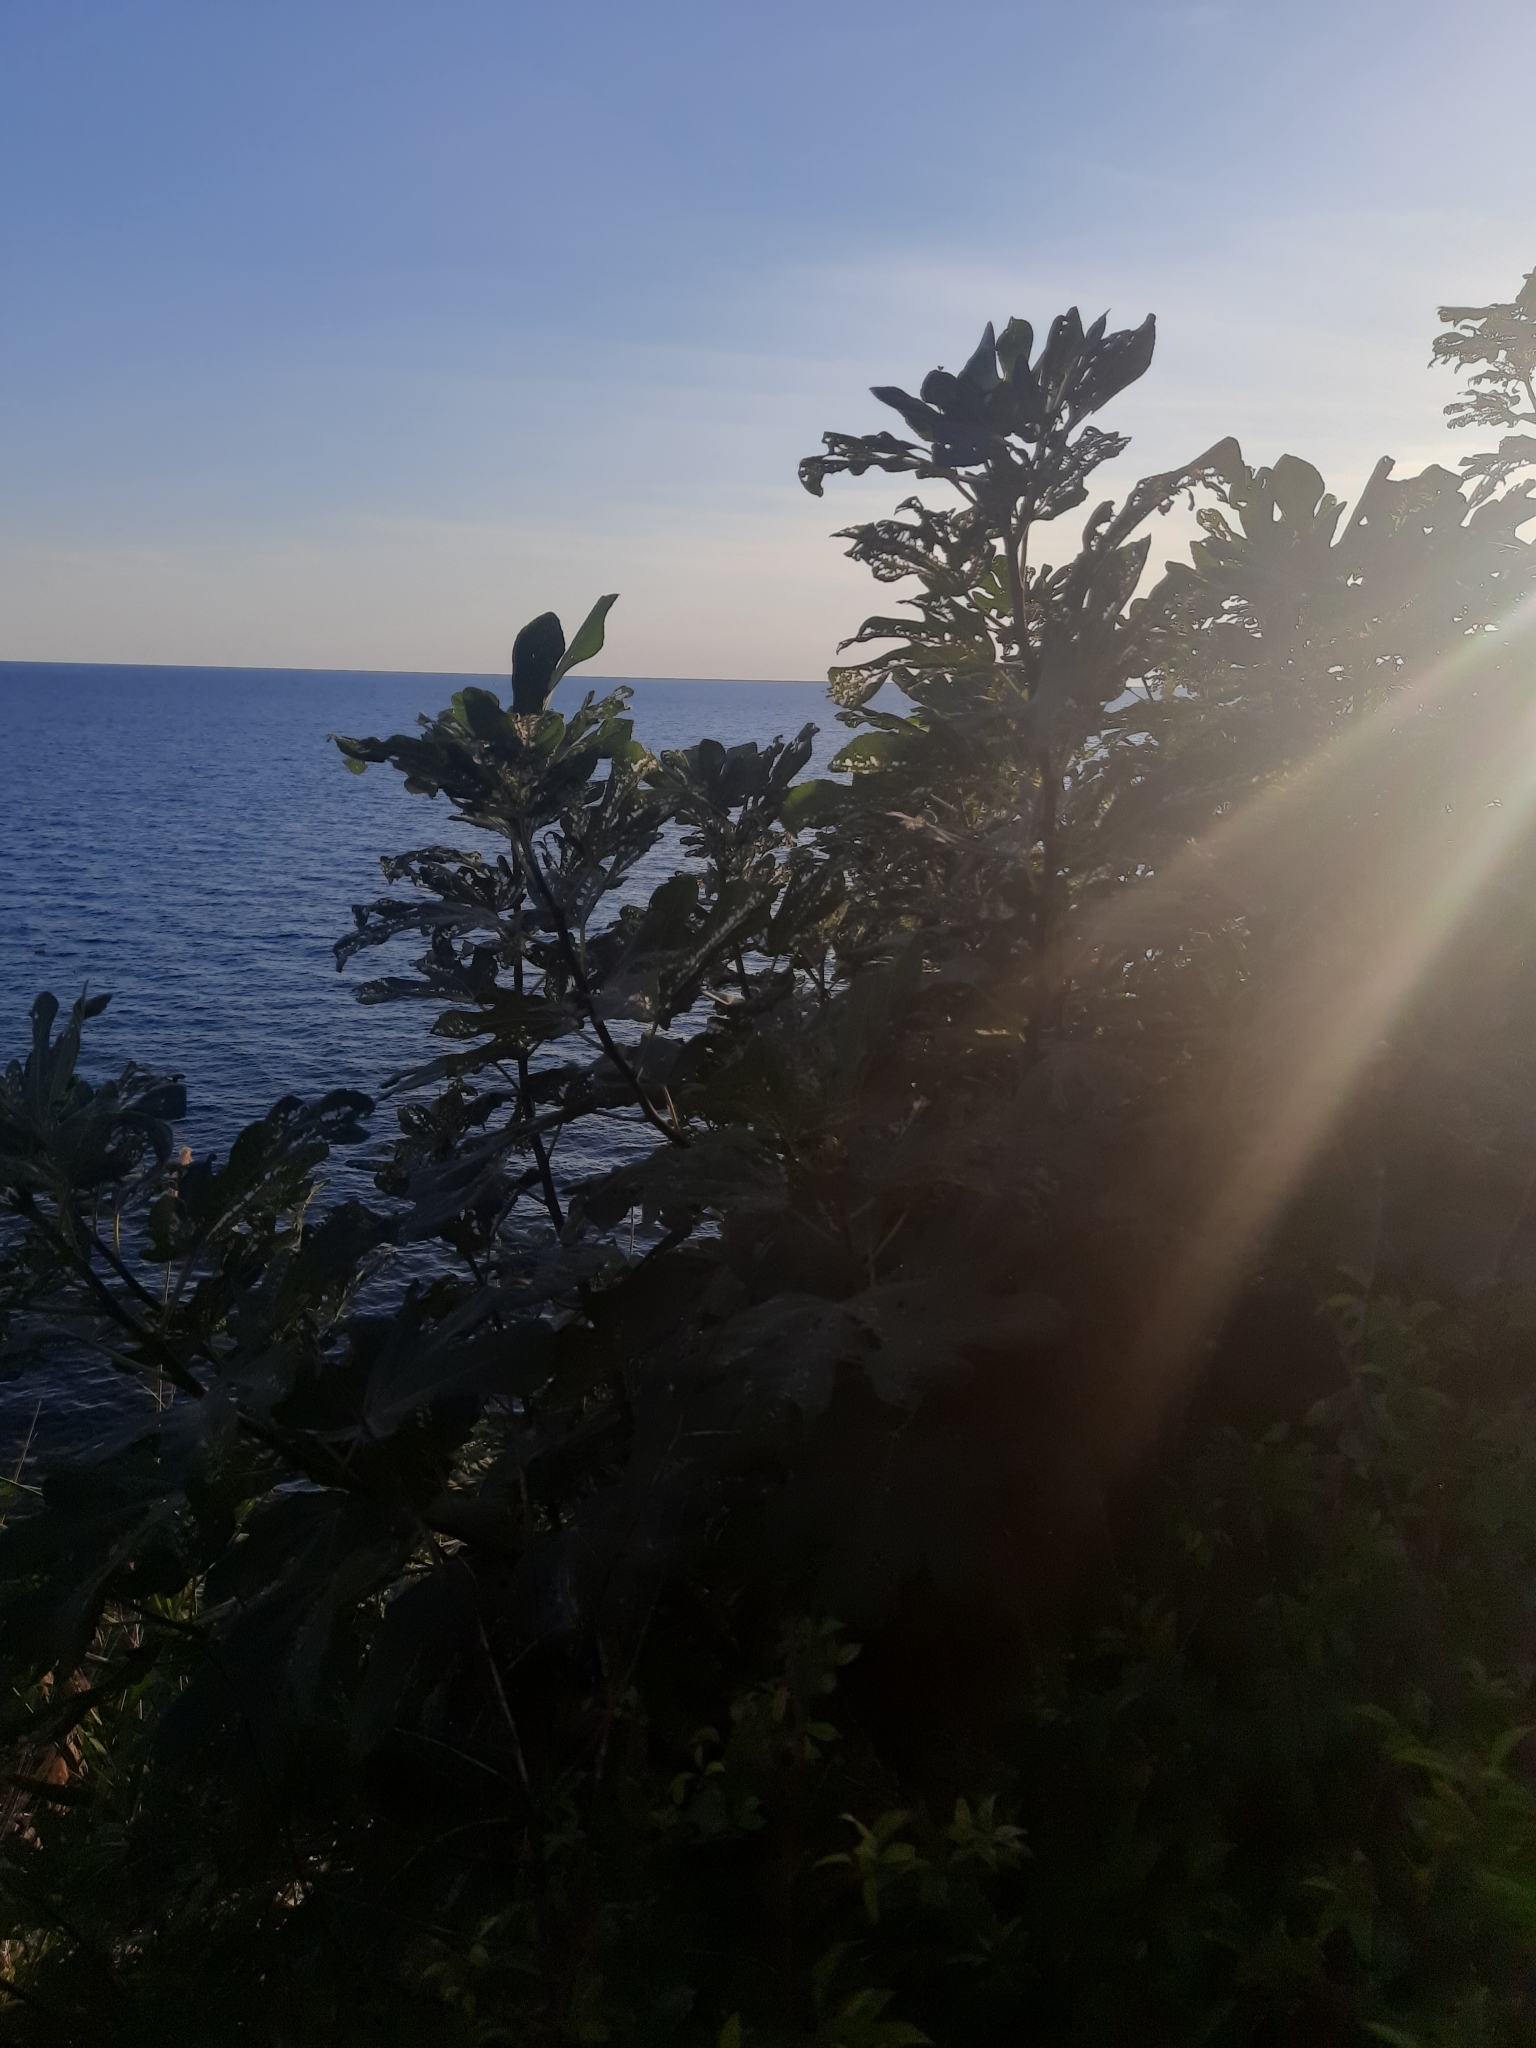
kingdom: Plantae
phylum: Tracheophyta
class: Magnoliopsida
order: Rosales
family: Moraceae
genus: Ficus
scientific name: Ficus carica
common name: Fig
